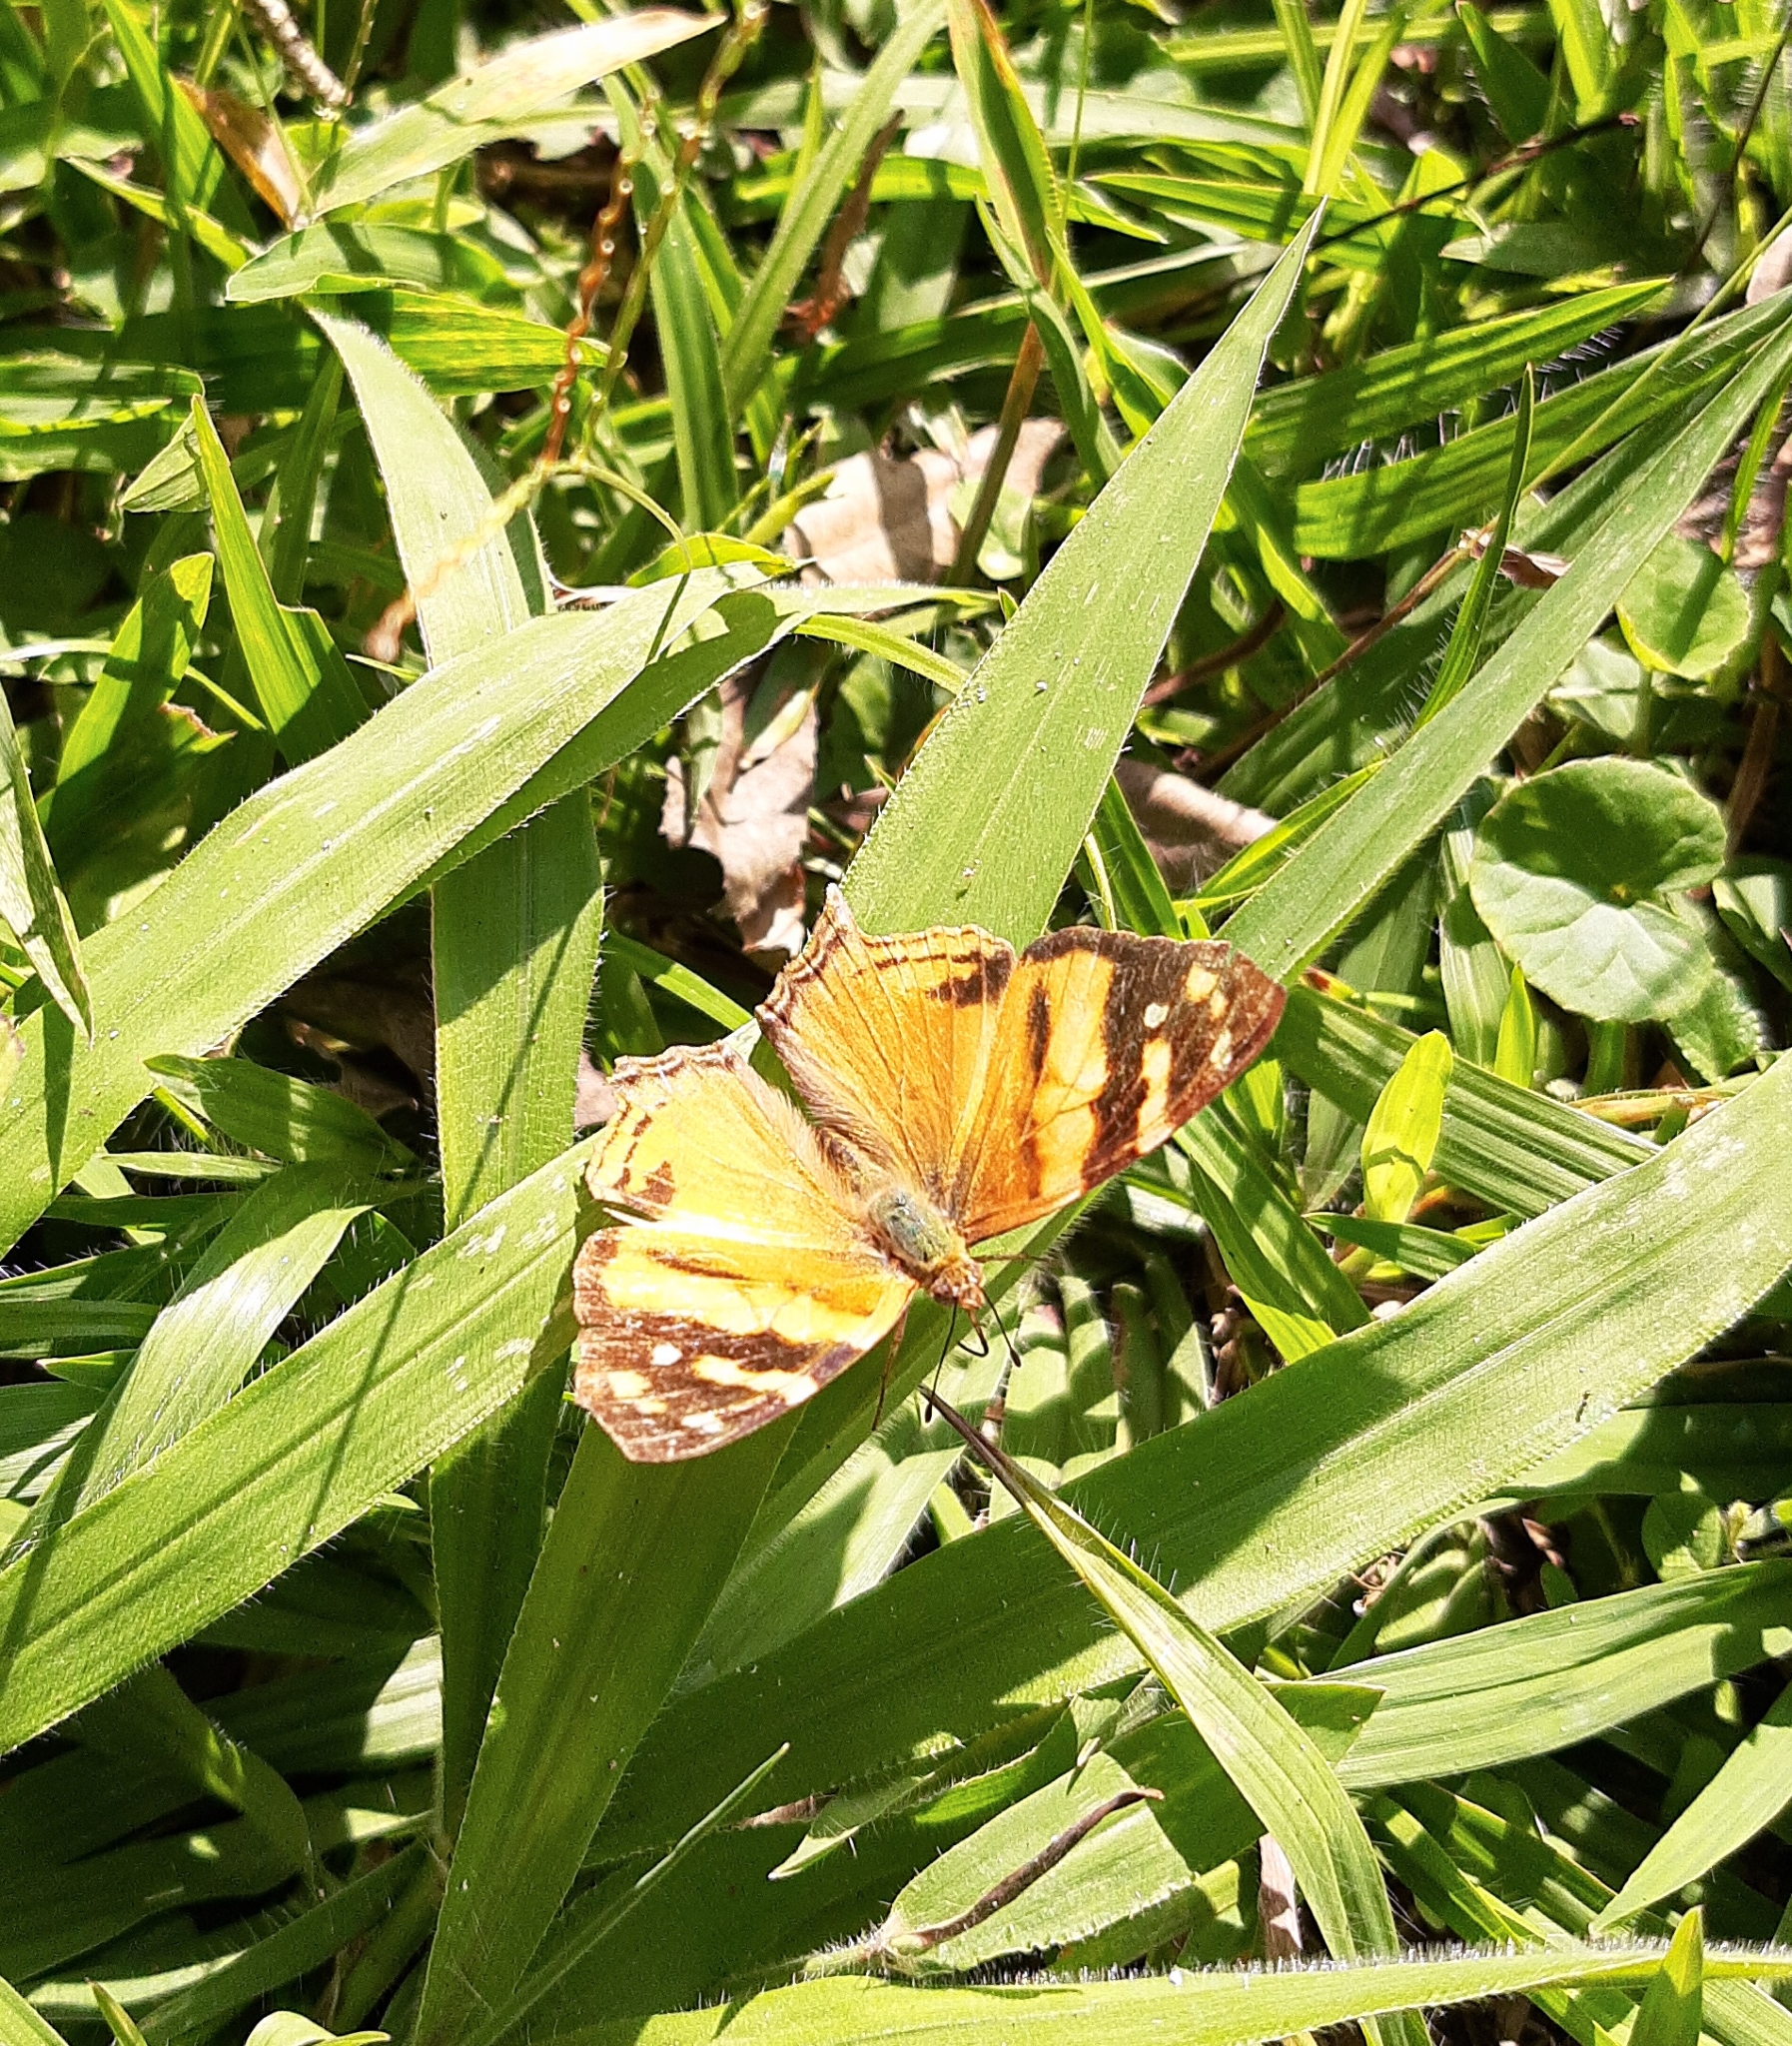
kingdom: Animalia
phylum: Arthropoda
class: Insecta
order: Lepidoptera
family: Nymphalidae
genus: Hypanartia
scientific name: Hypanartia lethe
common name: Orange mapwing
